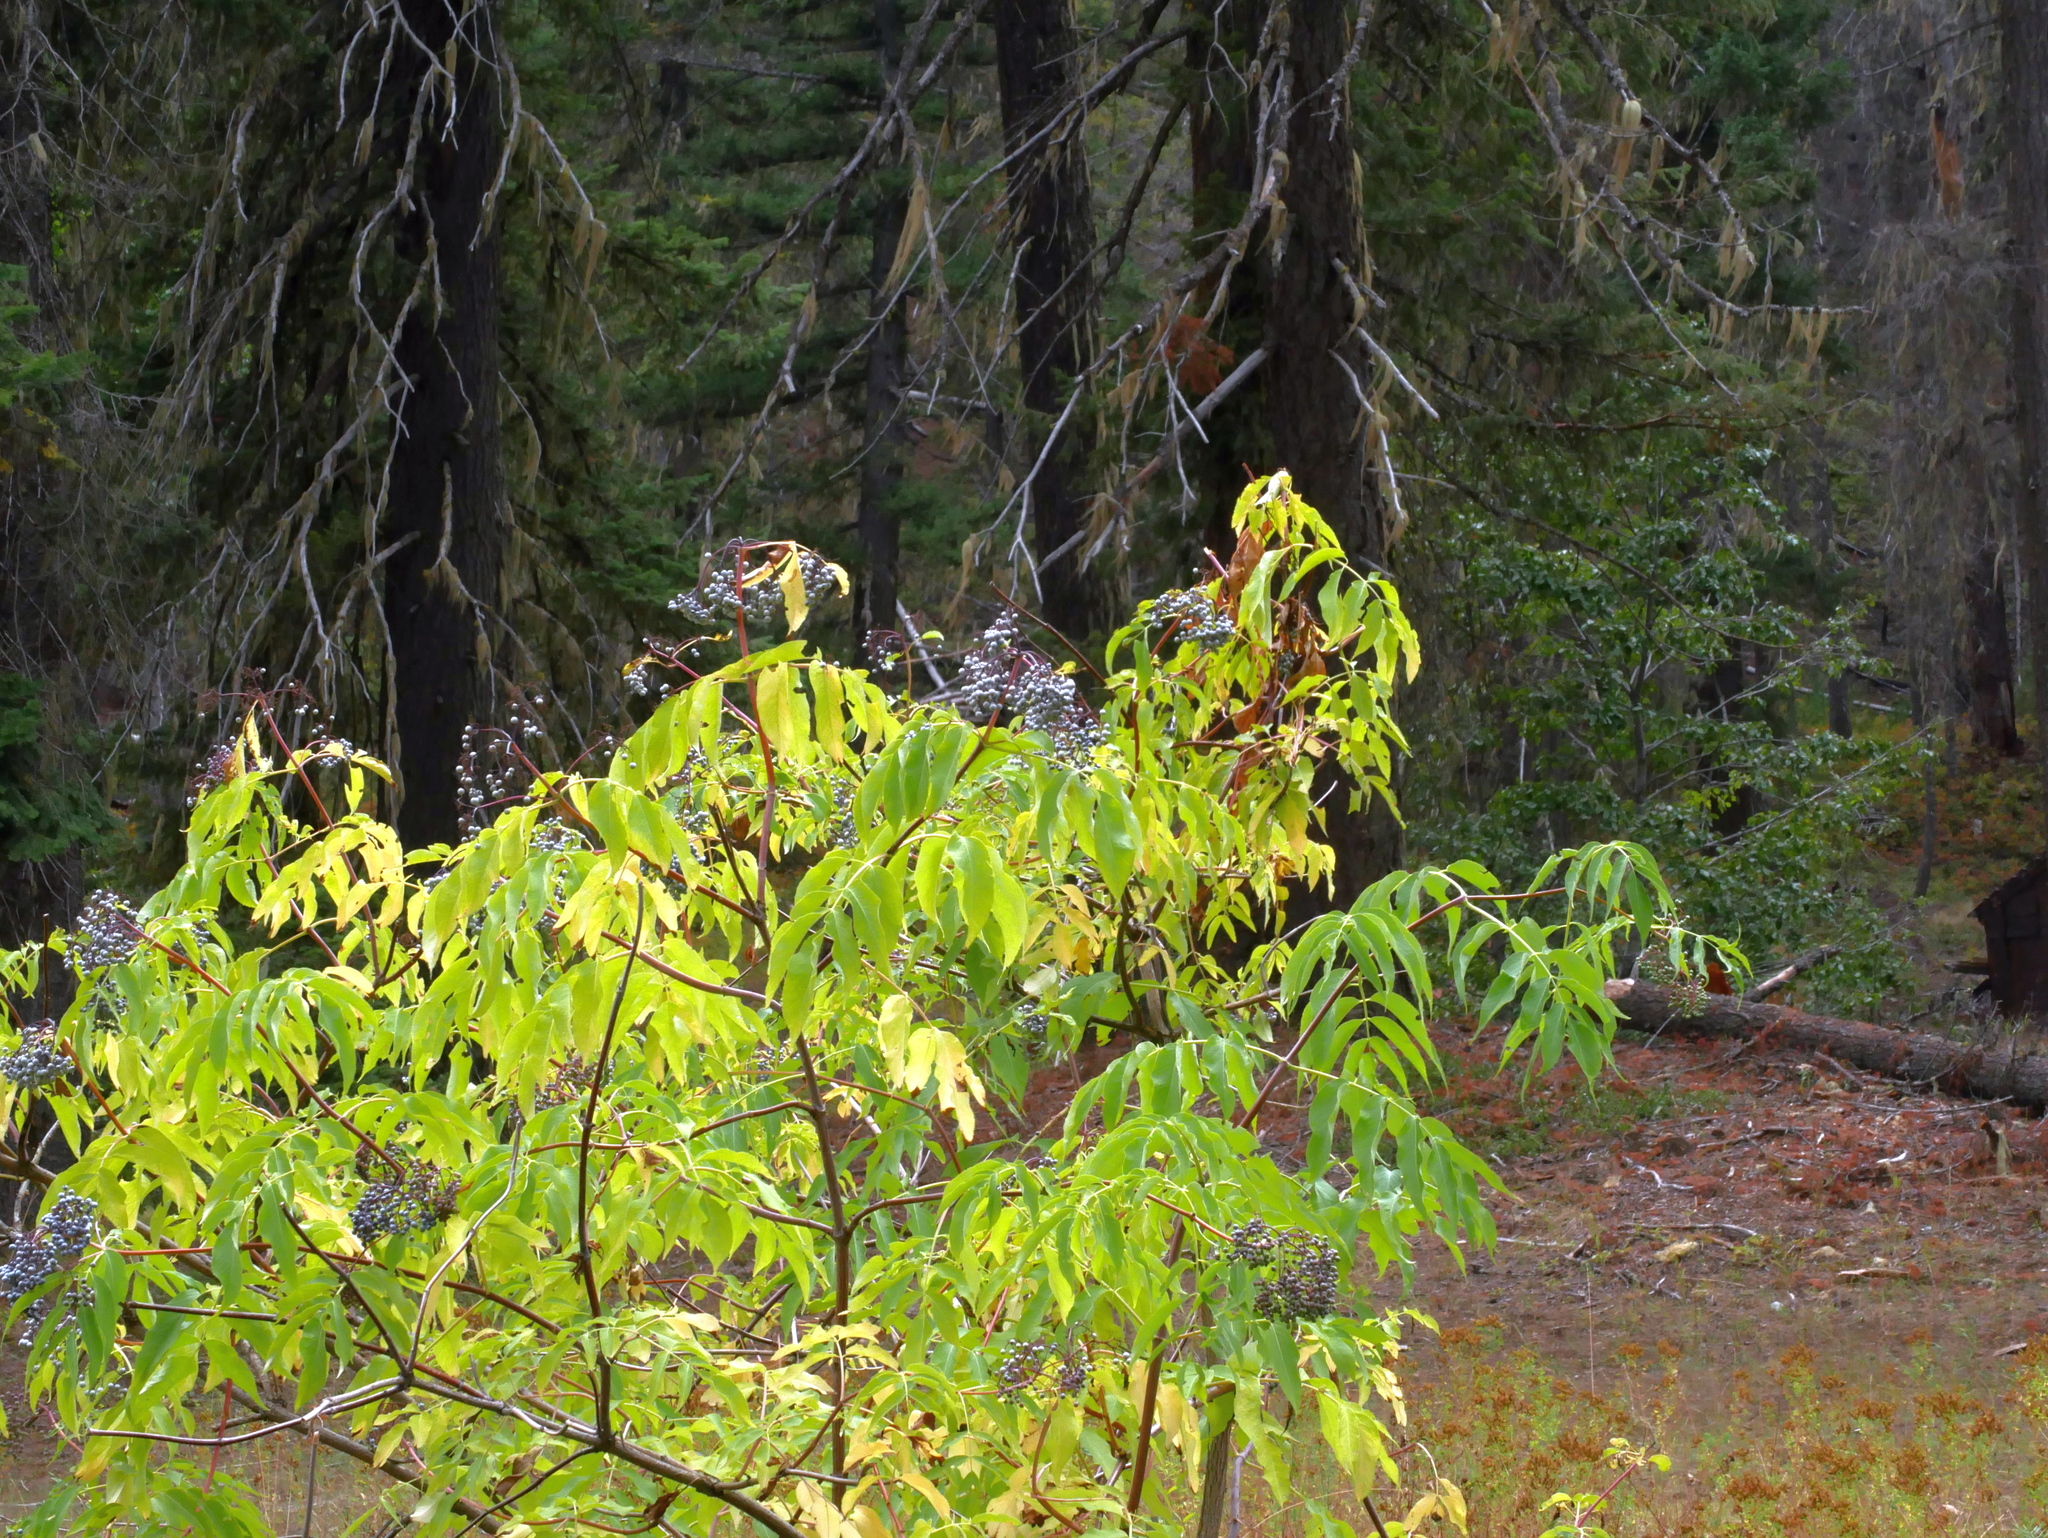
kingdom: Plantae
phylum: Tracheophyta
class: Magnoliopsida
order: Dipsacales
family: Viburnaceae
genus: Sambucus
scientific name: Sambucus cerulea
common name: Blue elder
